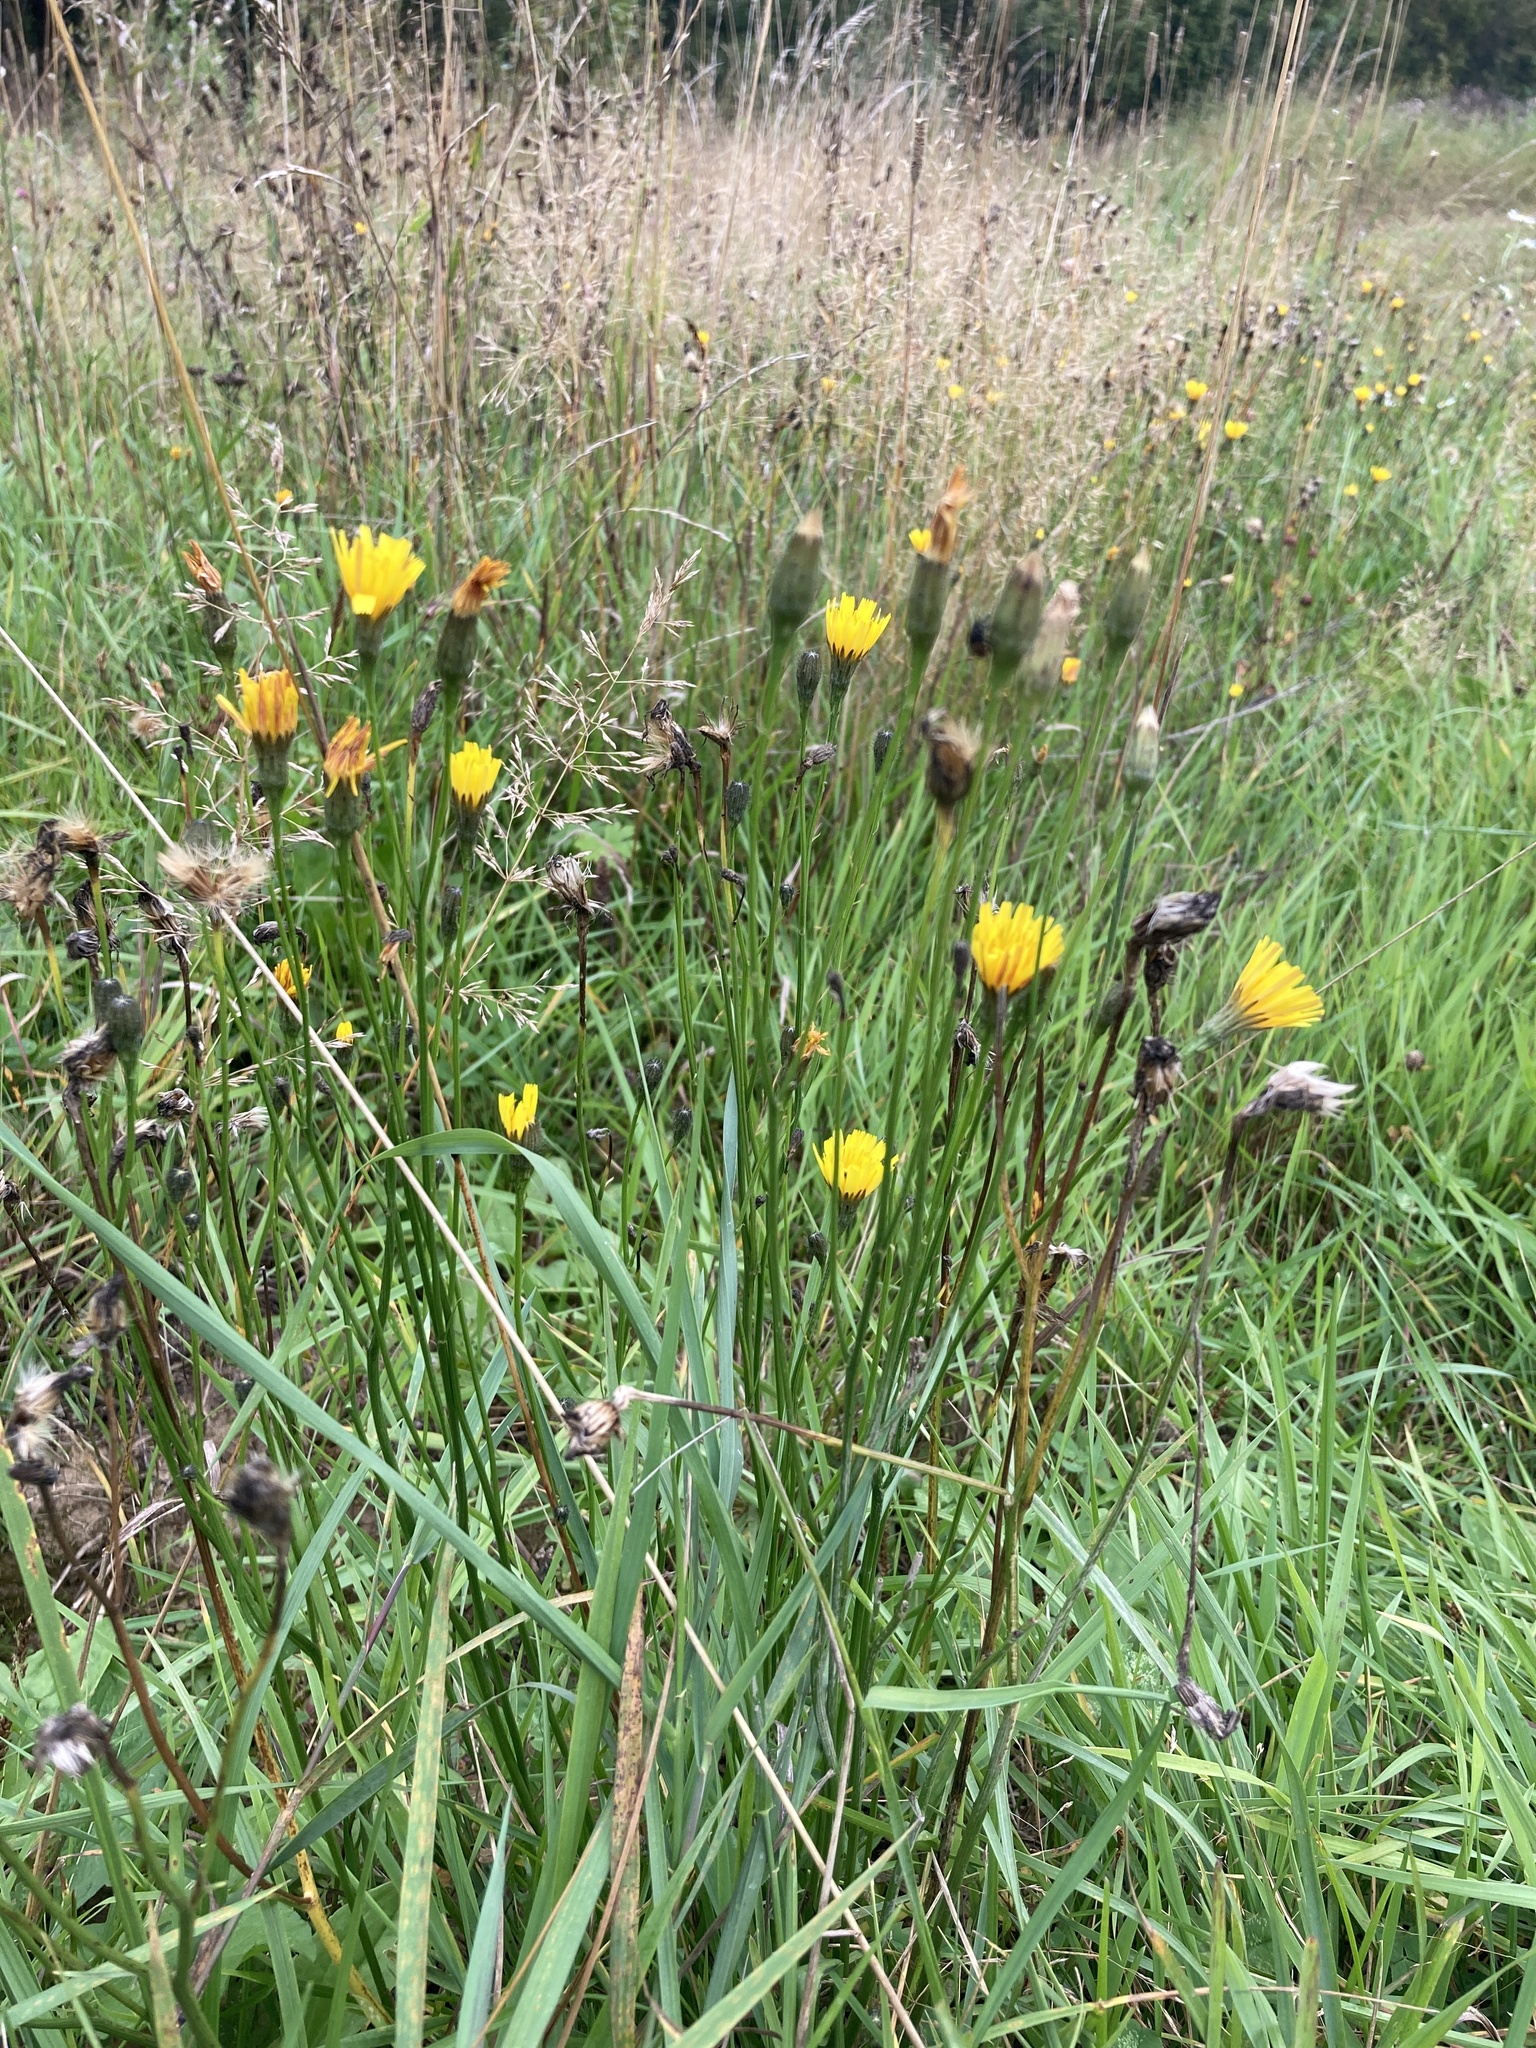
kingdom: Plantae
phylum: Tracheophyta
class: Magnoliopsida
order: Asterales
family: Asteraceae
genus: Scorzoneroides
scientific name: Scorzoneroides autumnalis
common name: Autumn hawkbit
